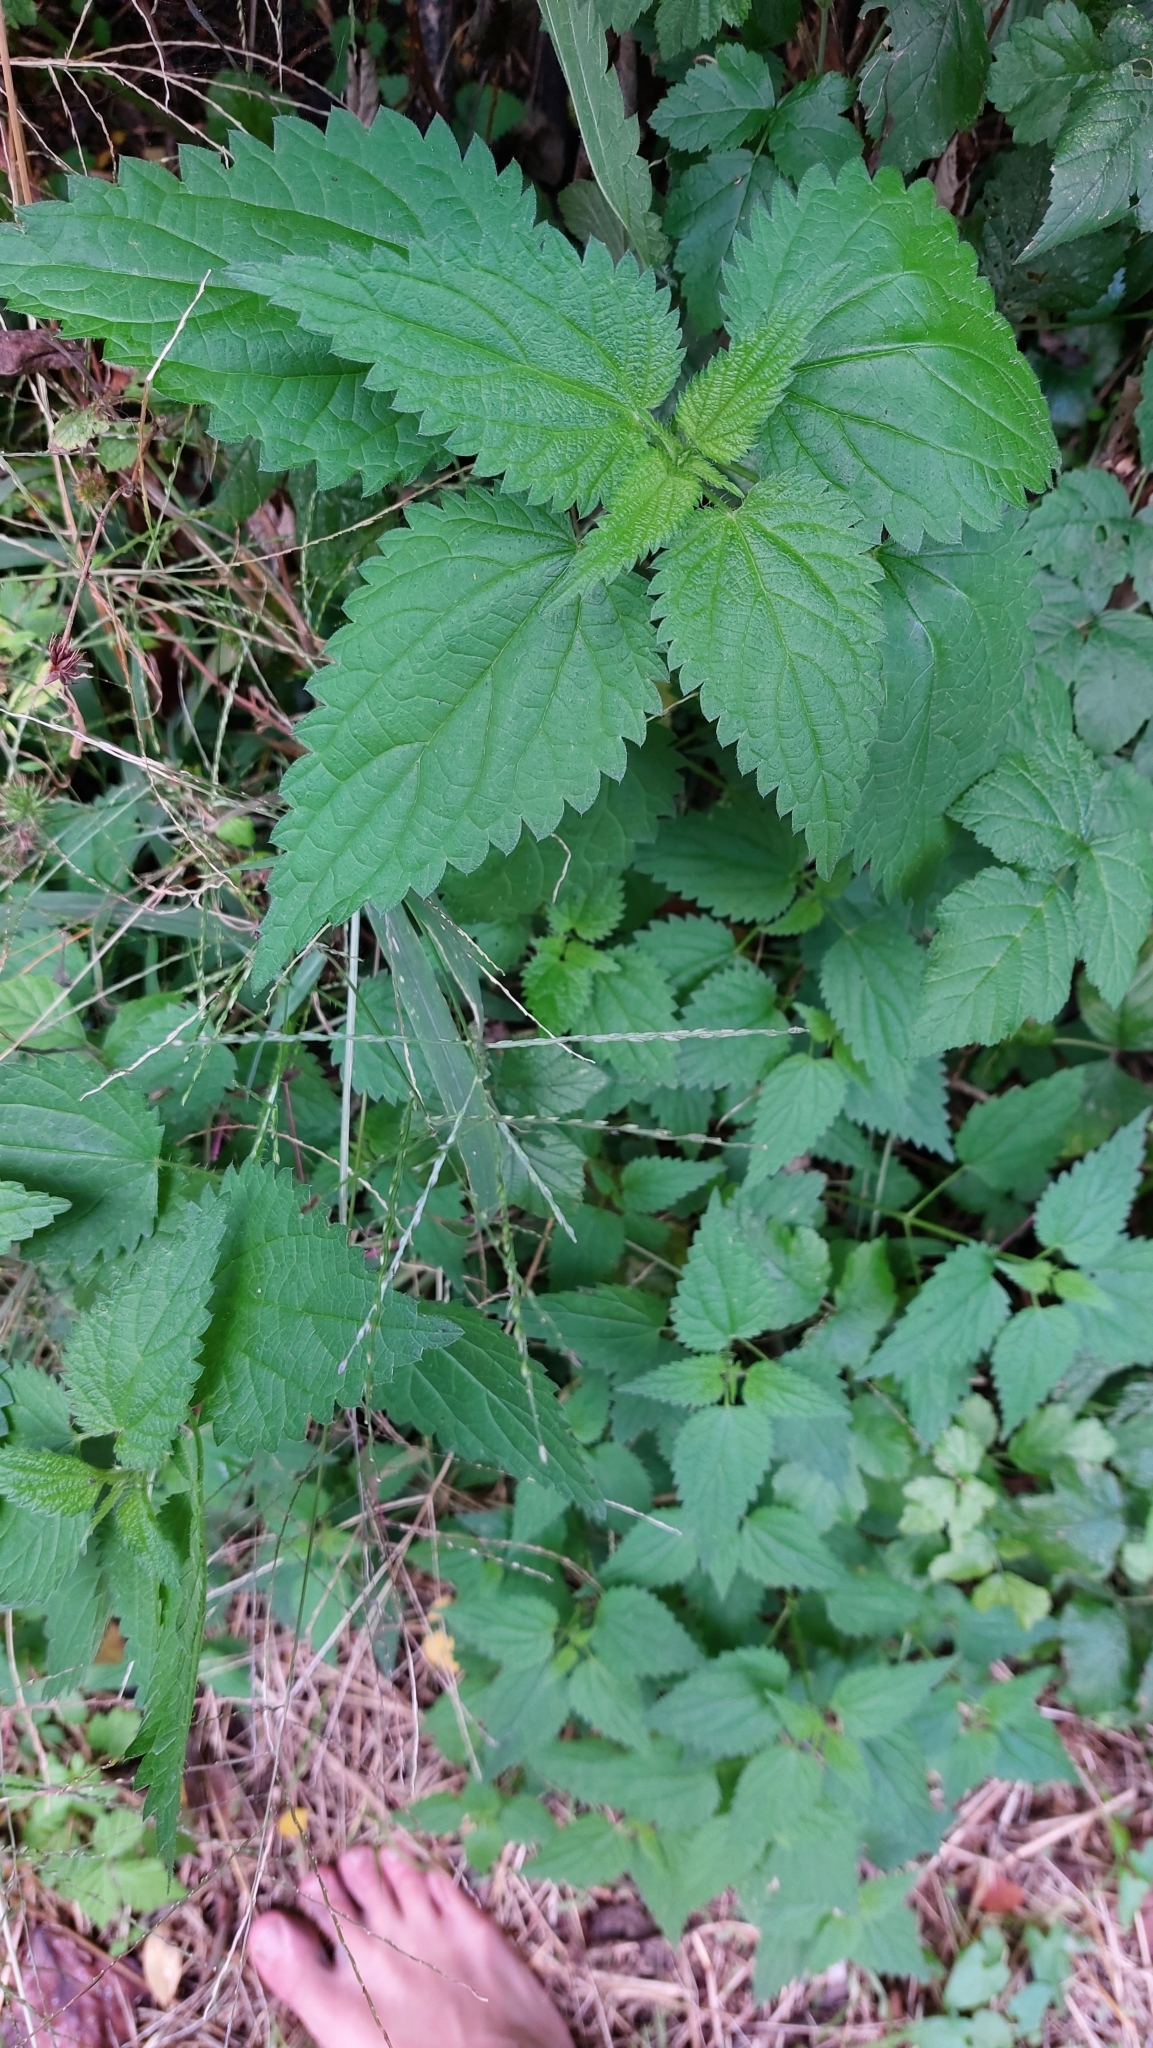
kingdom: Plantae
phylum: Tracheophyta
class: Magnoliopsida
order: Rosales
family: Urticaceae
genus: Urtica
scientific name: Urtica dioica
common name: Common nettle
